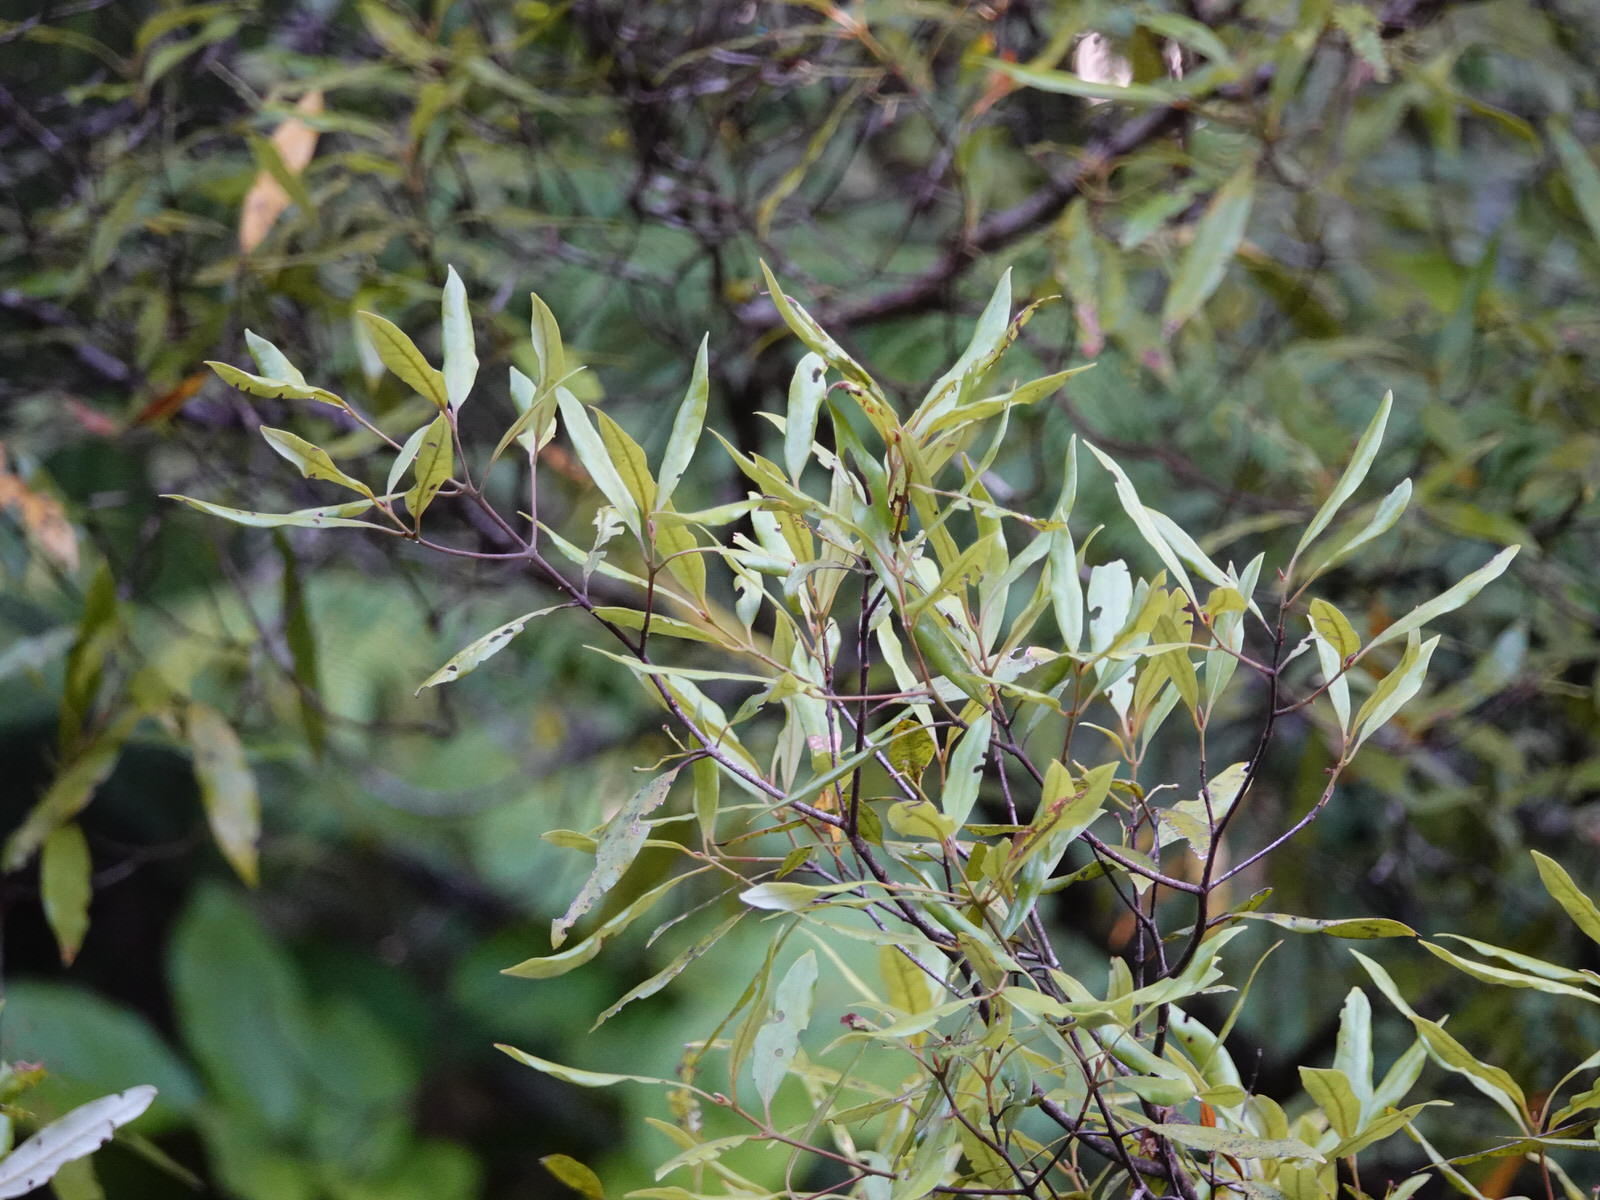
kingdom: Plantae
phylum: Tracheophyta
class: Magnoliopsida
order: Laurales
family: Lauraceae
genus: Beilschmiedia
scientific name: Beilschmiedia tawa
